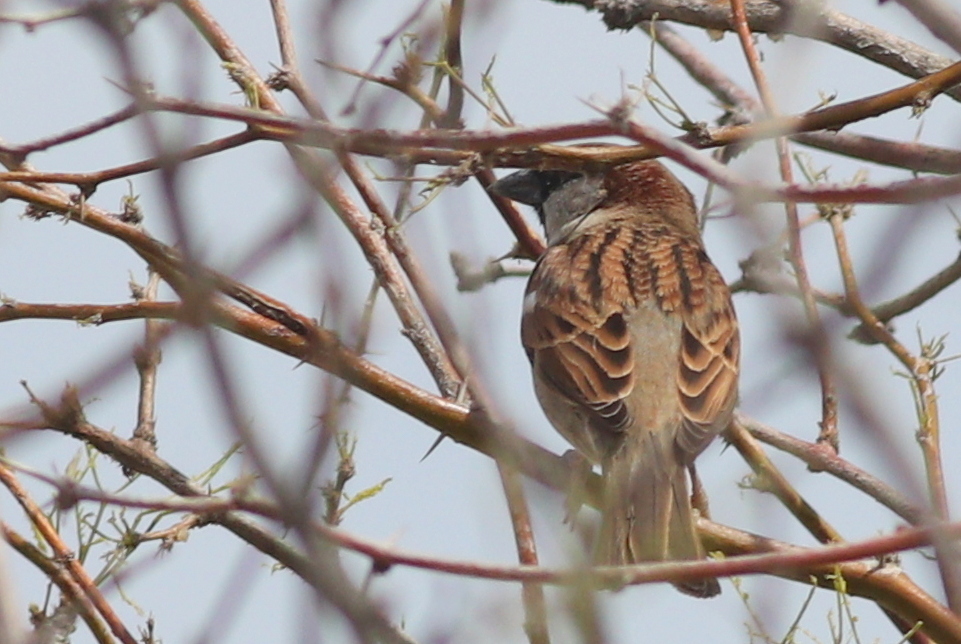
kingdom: Animalia
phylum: Chordata
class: Aves
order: Passeriformes
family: Passeridae
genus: Passer
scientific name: Passer domesticus
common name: House sparrow
